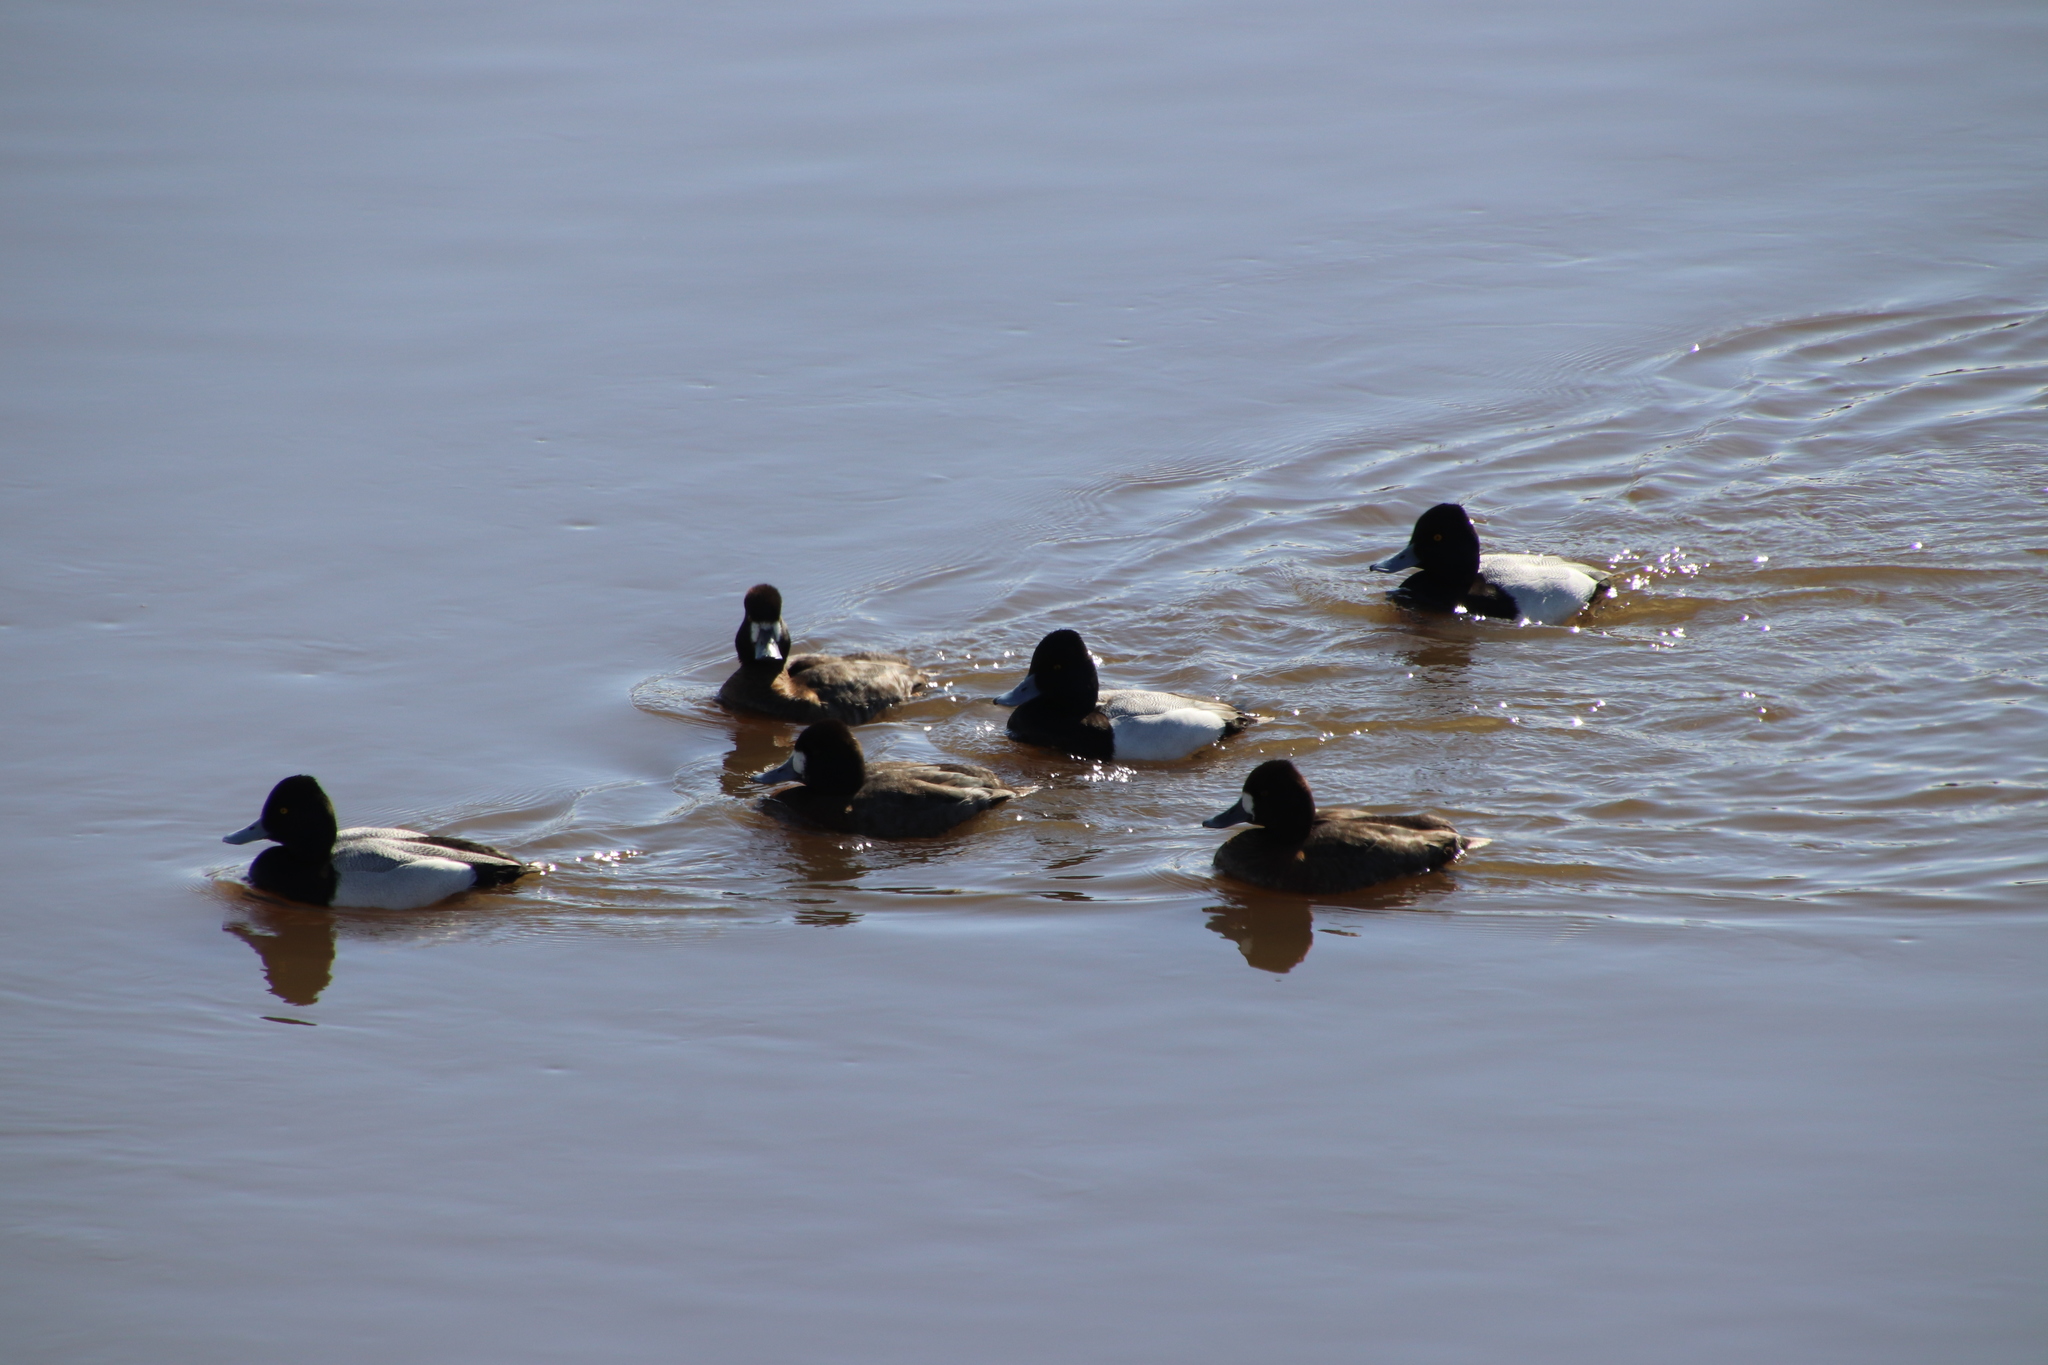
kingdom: Animalia
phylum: Chordata
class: Aves
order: Anseriformes
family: Anatidae
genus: Aythya
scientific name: Aythya affinis
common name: Lesser scaup
